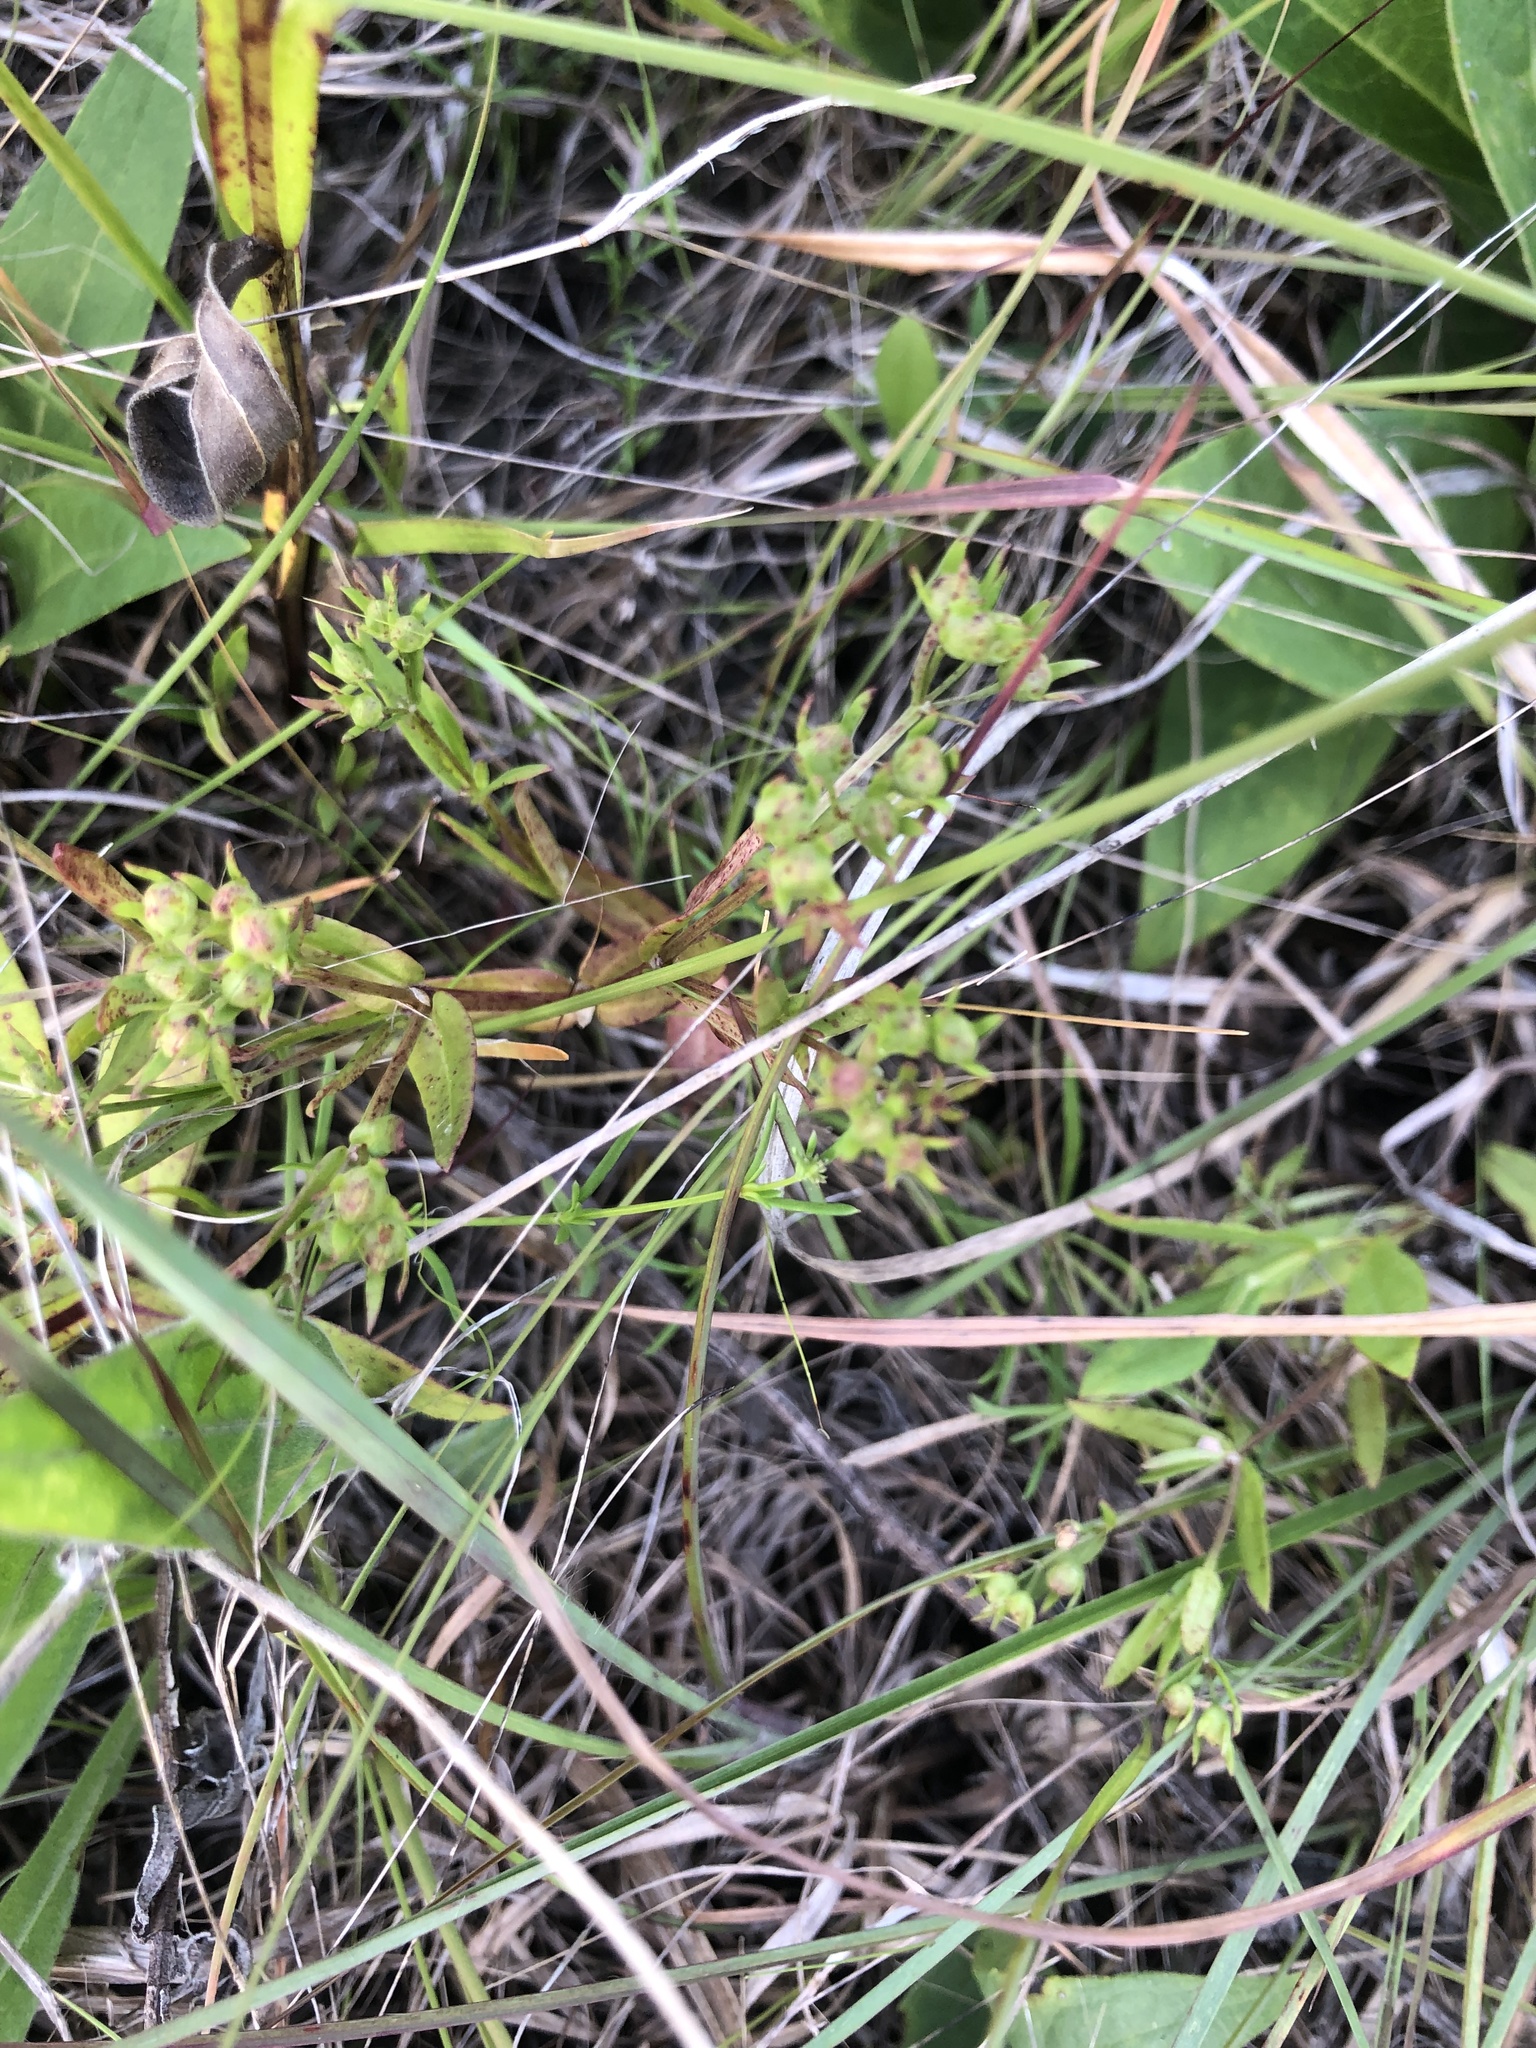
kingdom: Plantae
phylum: Tracheophyta
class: Magnoliopsida
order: Gentianales
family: Rubiaceae
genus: Houstonia
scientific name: Houstonia purpurea
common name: Summer bluet
